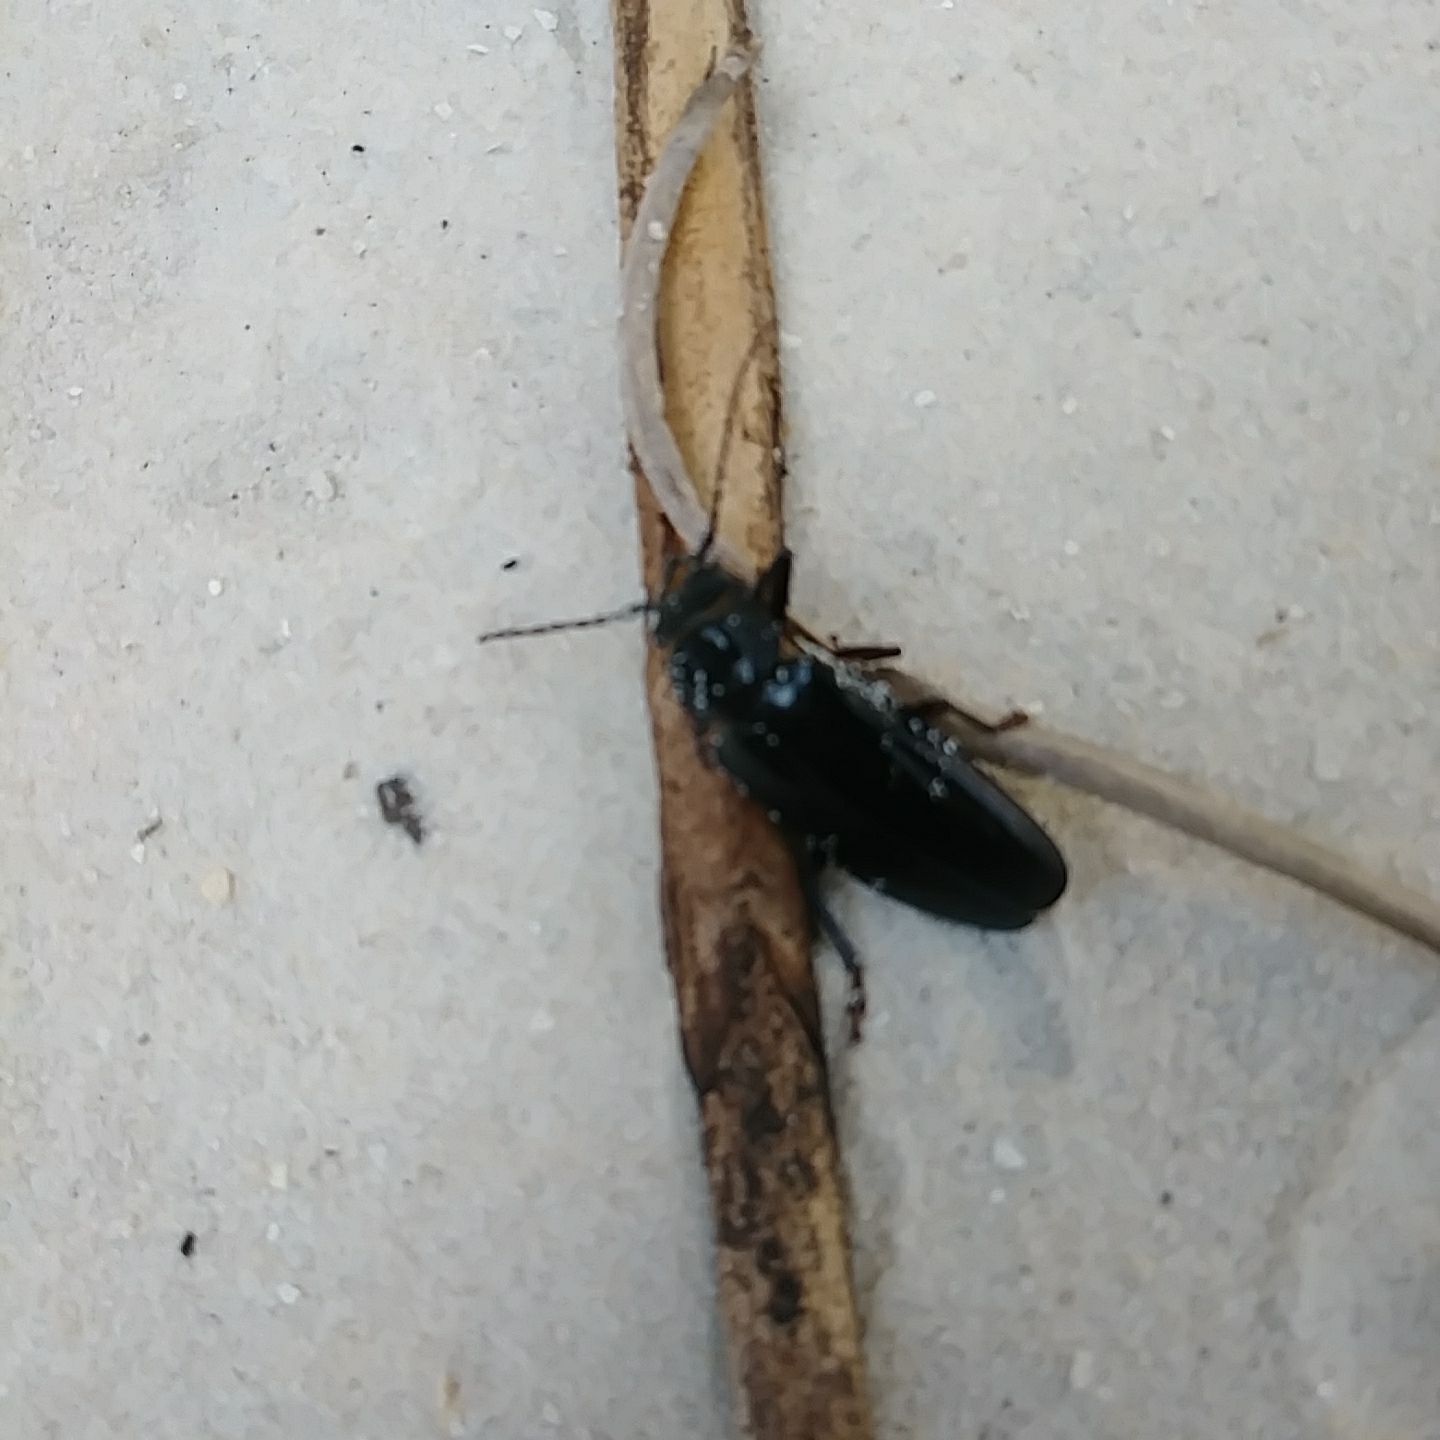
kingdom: Animalia
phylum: Arthropoda
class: Insecta
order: Coleoptera
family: Cerambycidae
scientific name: Cerambycidae
